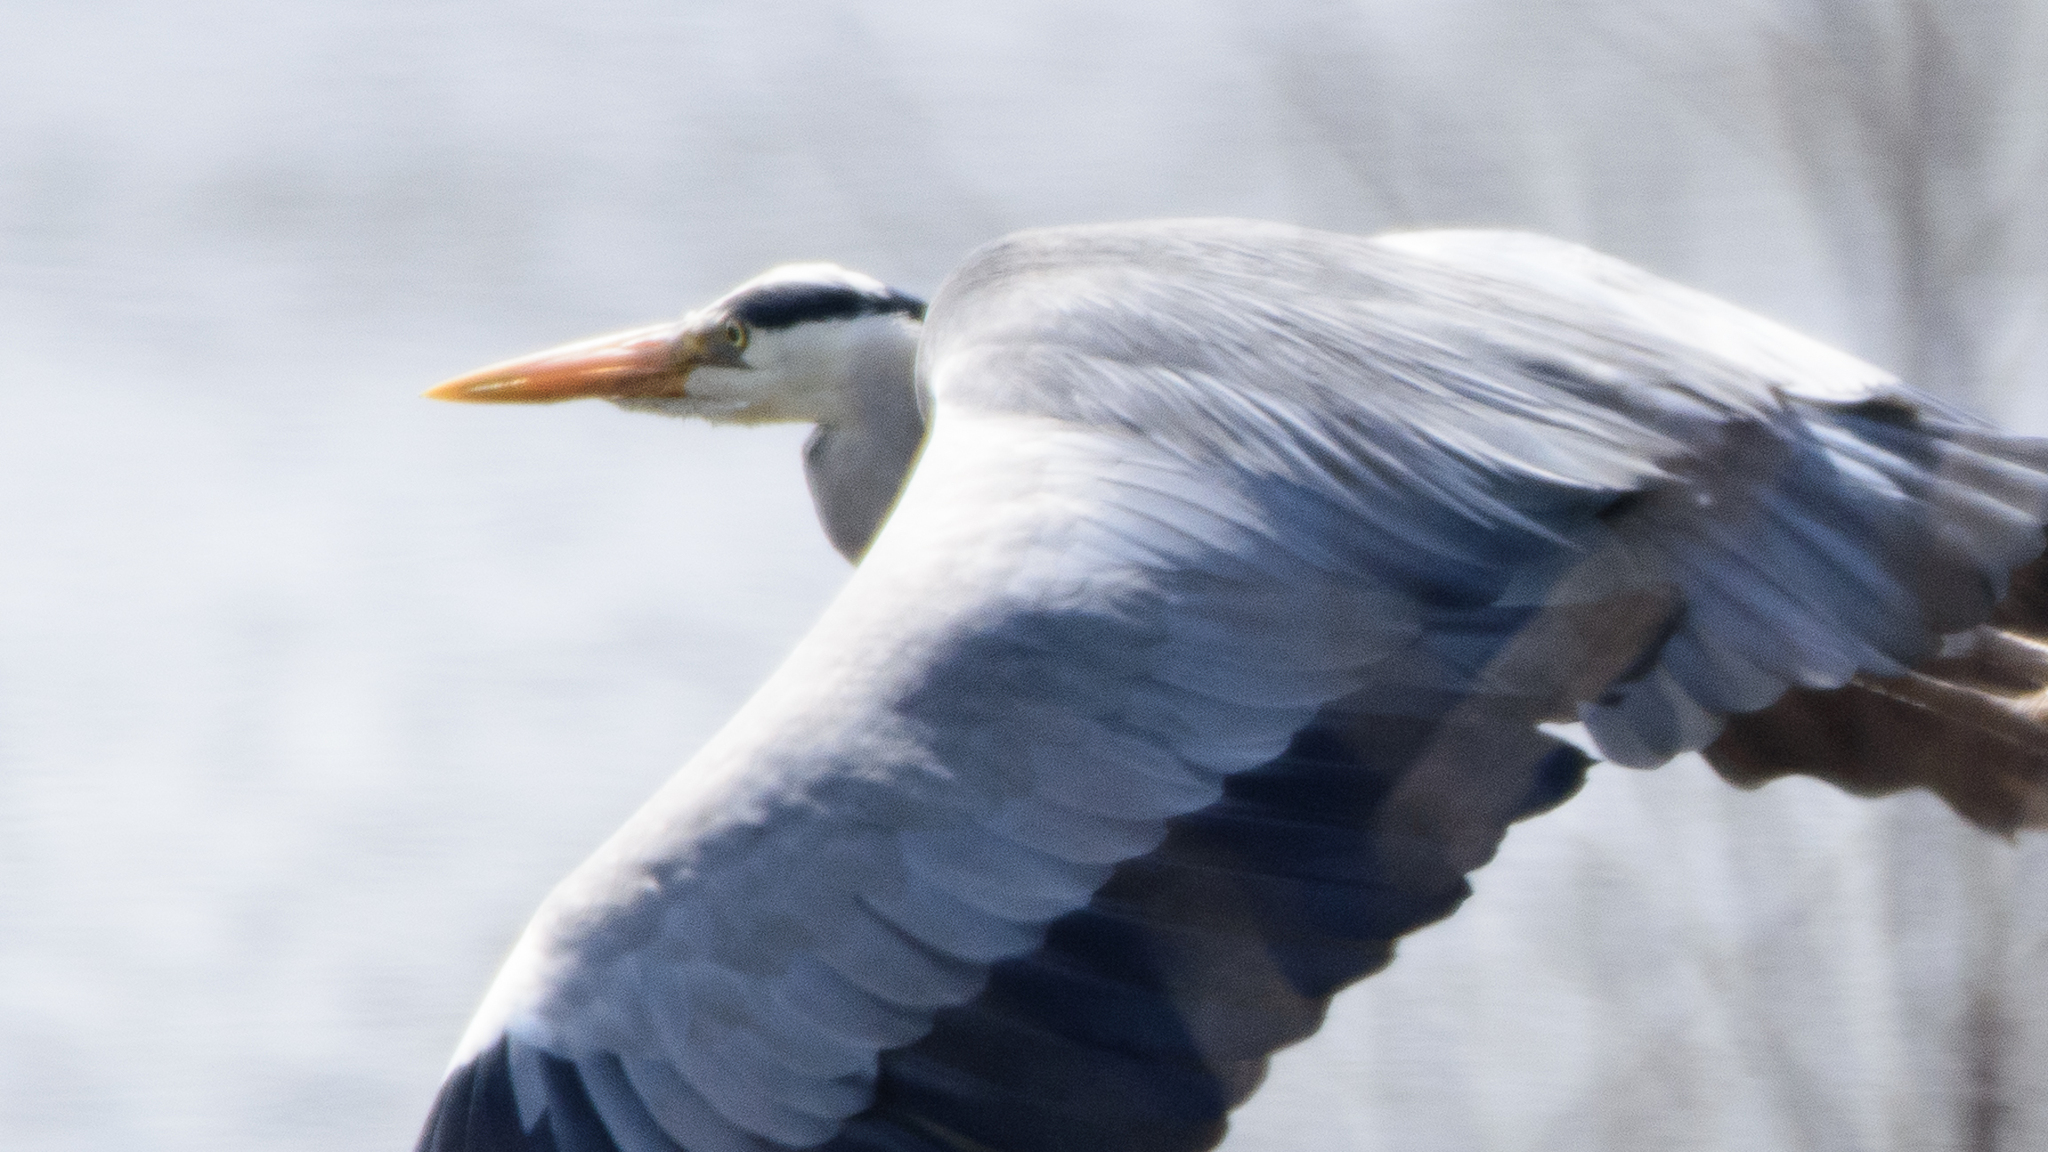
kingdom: Animalia
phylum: Chordata
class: Aves
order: Pelecaniformes
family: Ardeidae
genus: Ardea
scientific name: Ardea cinerea
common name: Grey heron
